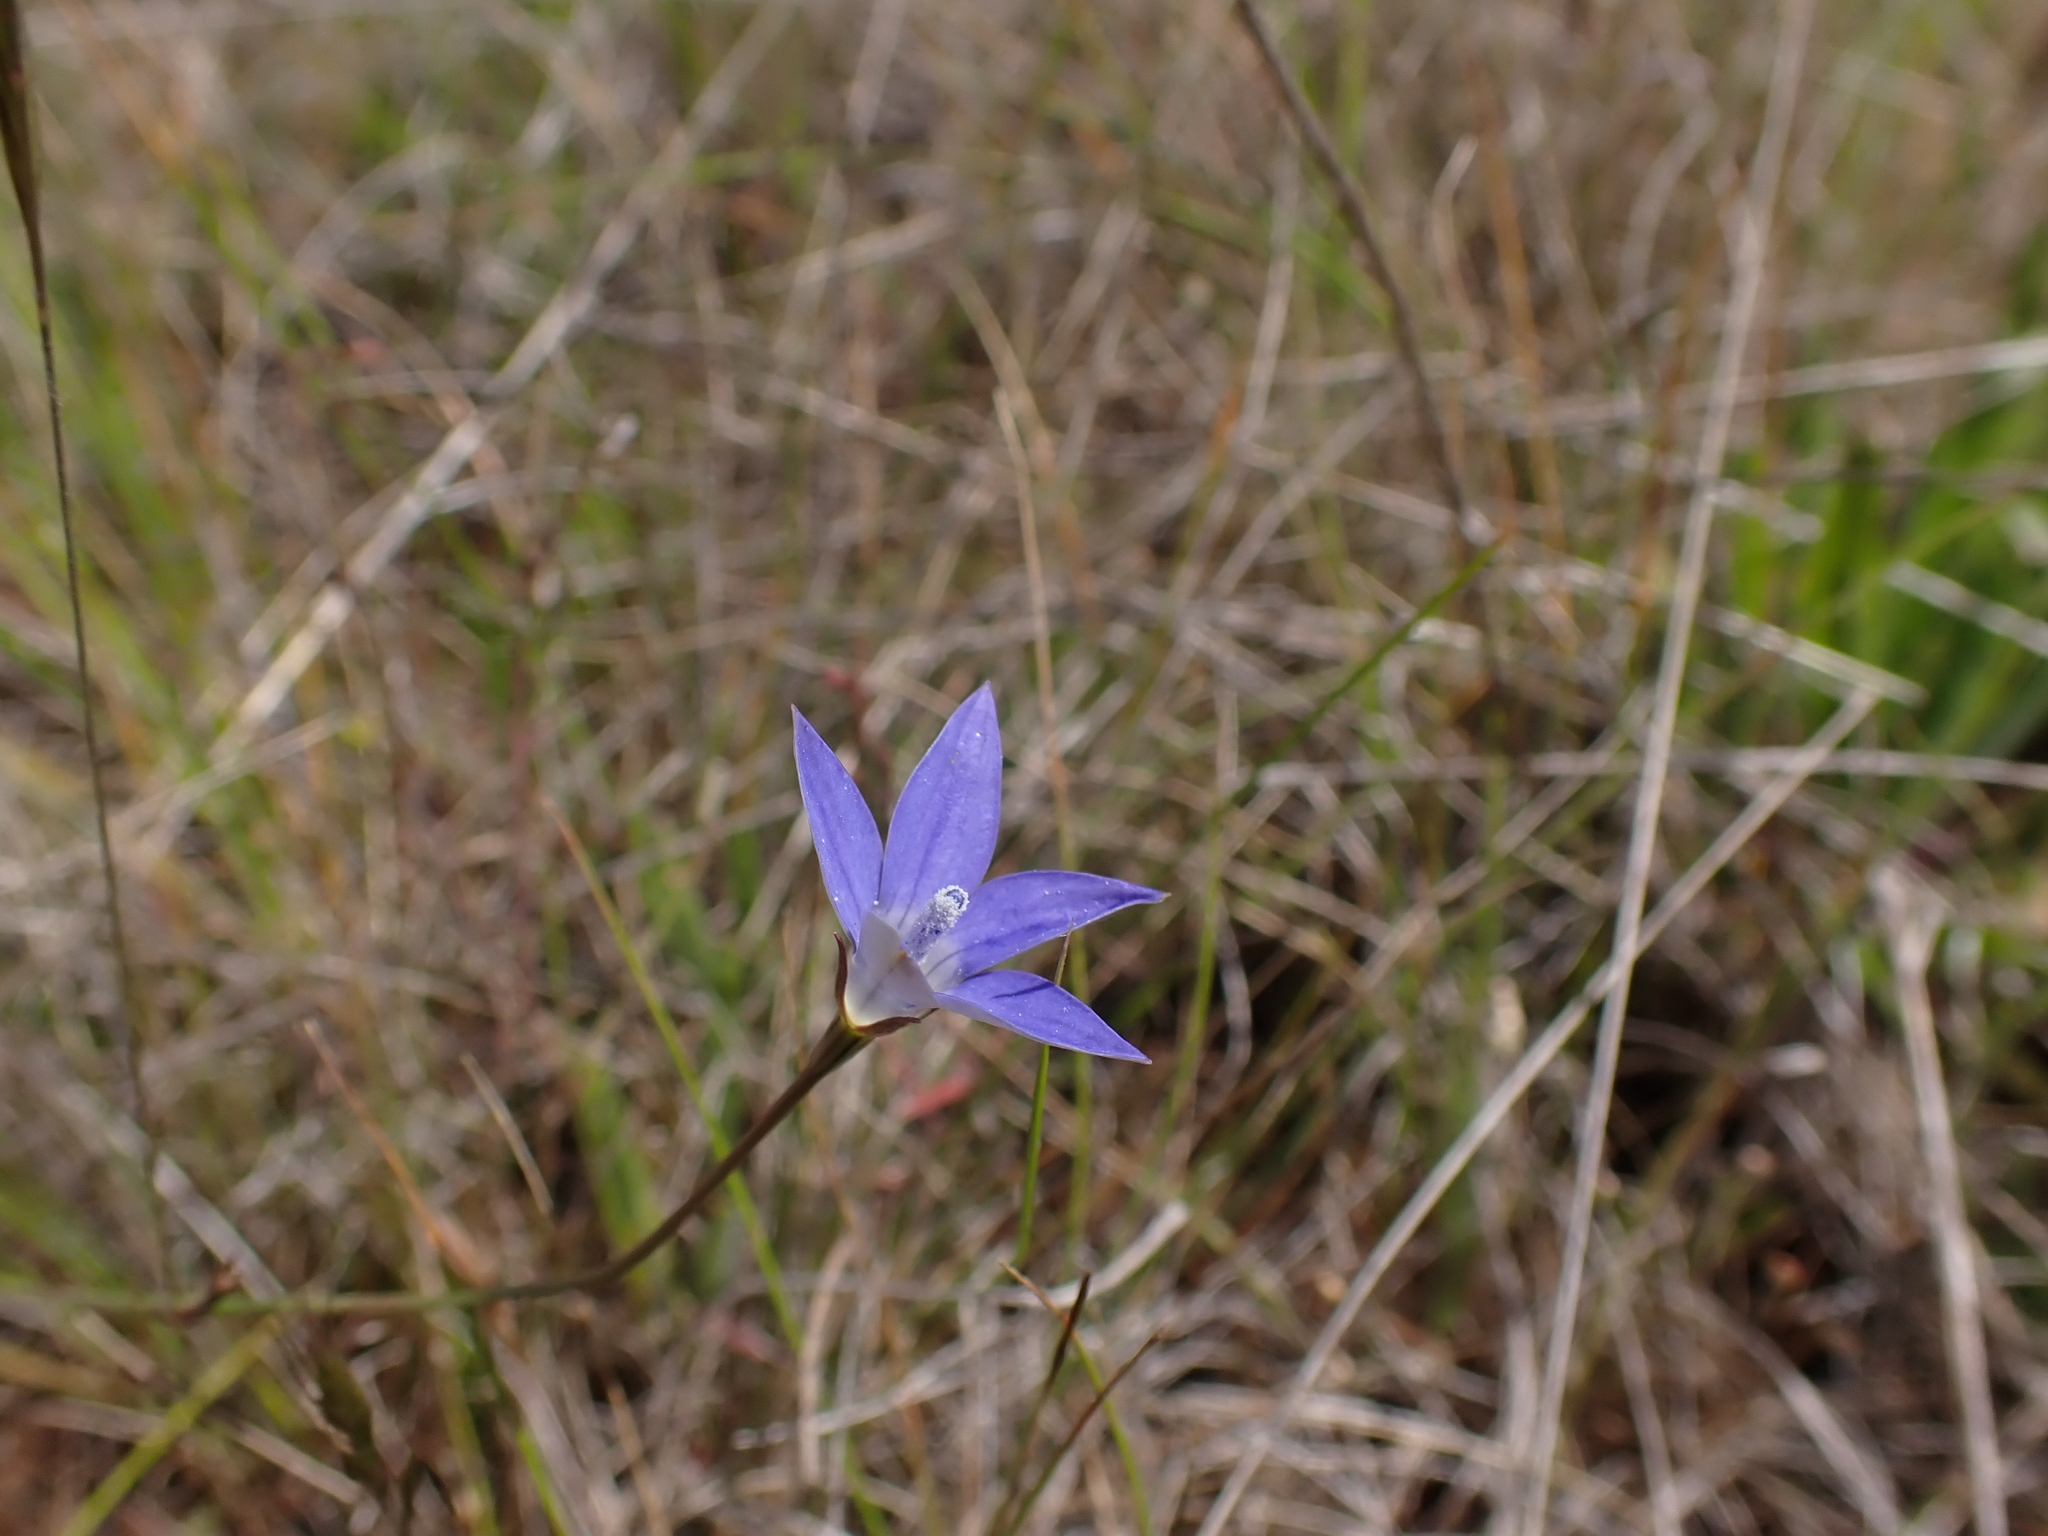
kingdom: Plantae
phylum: Tracheophyta
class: Magnoliopsida
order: Asterales
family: Campanulaceae
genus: Wahlenbergia
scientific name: Wahlenbergia luteola
